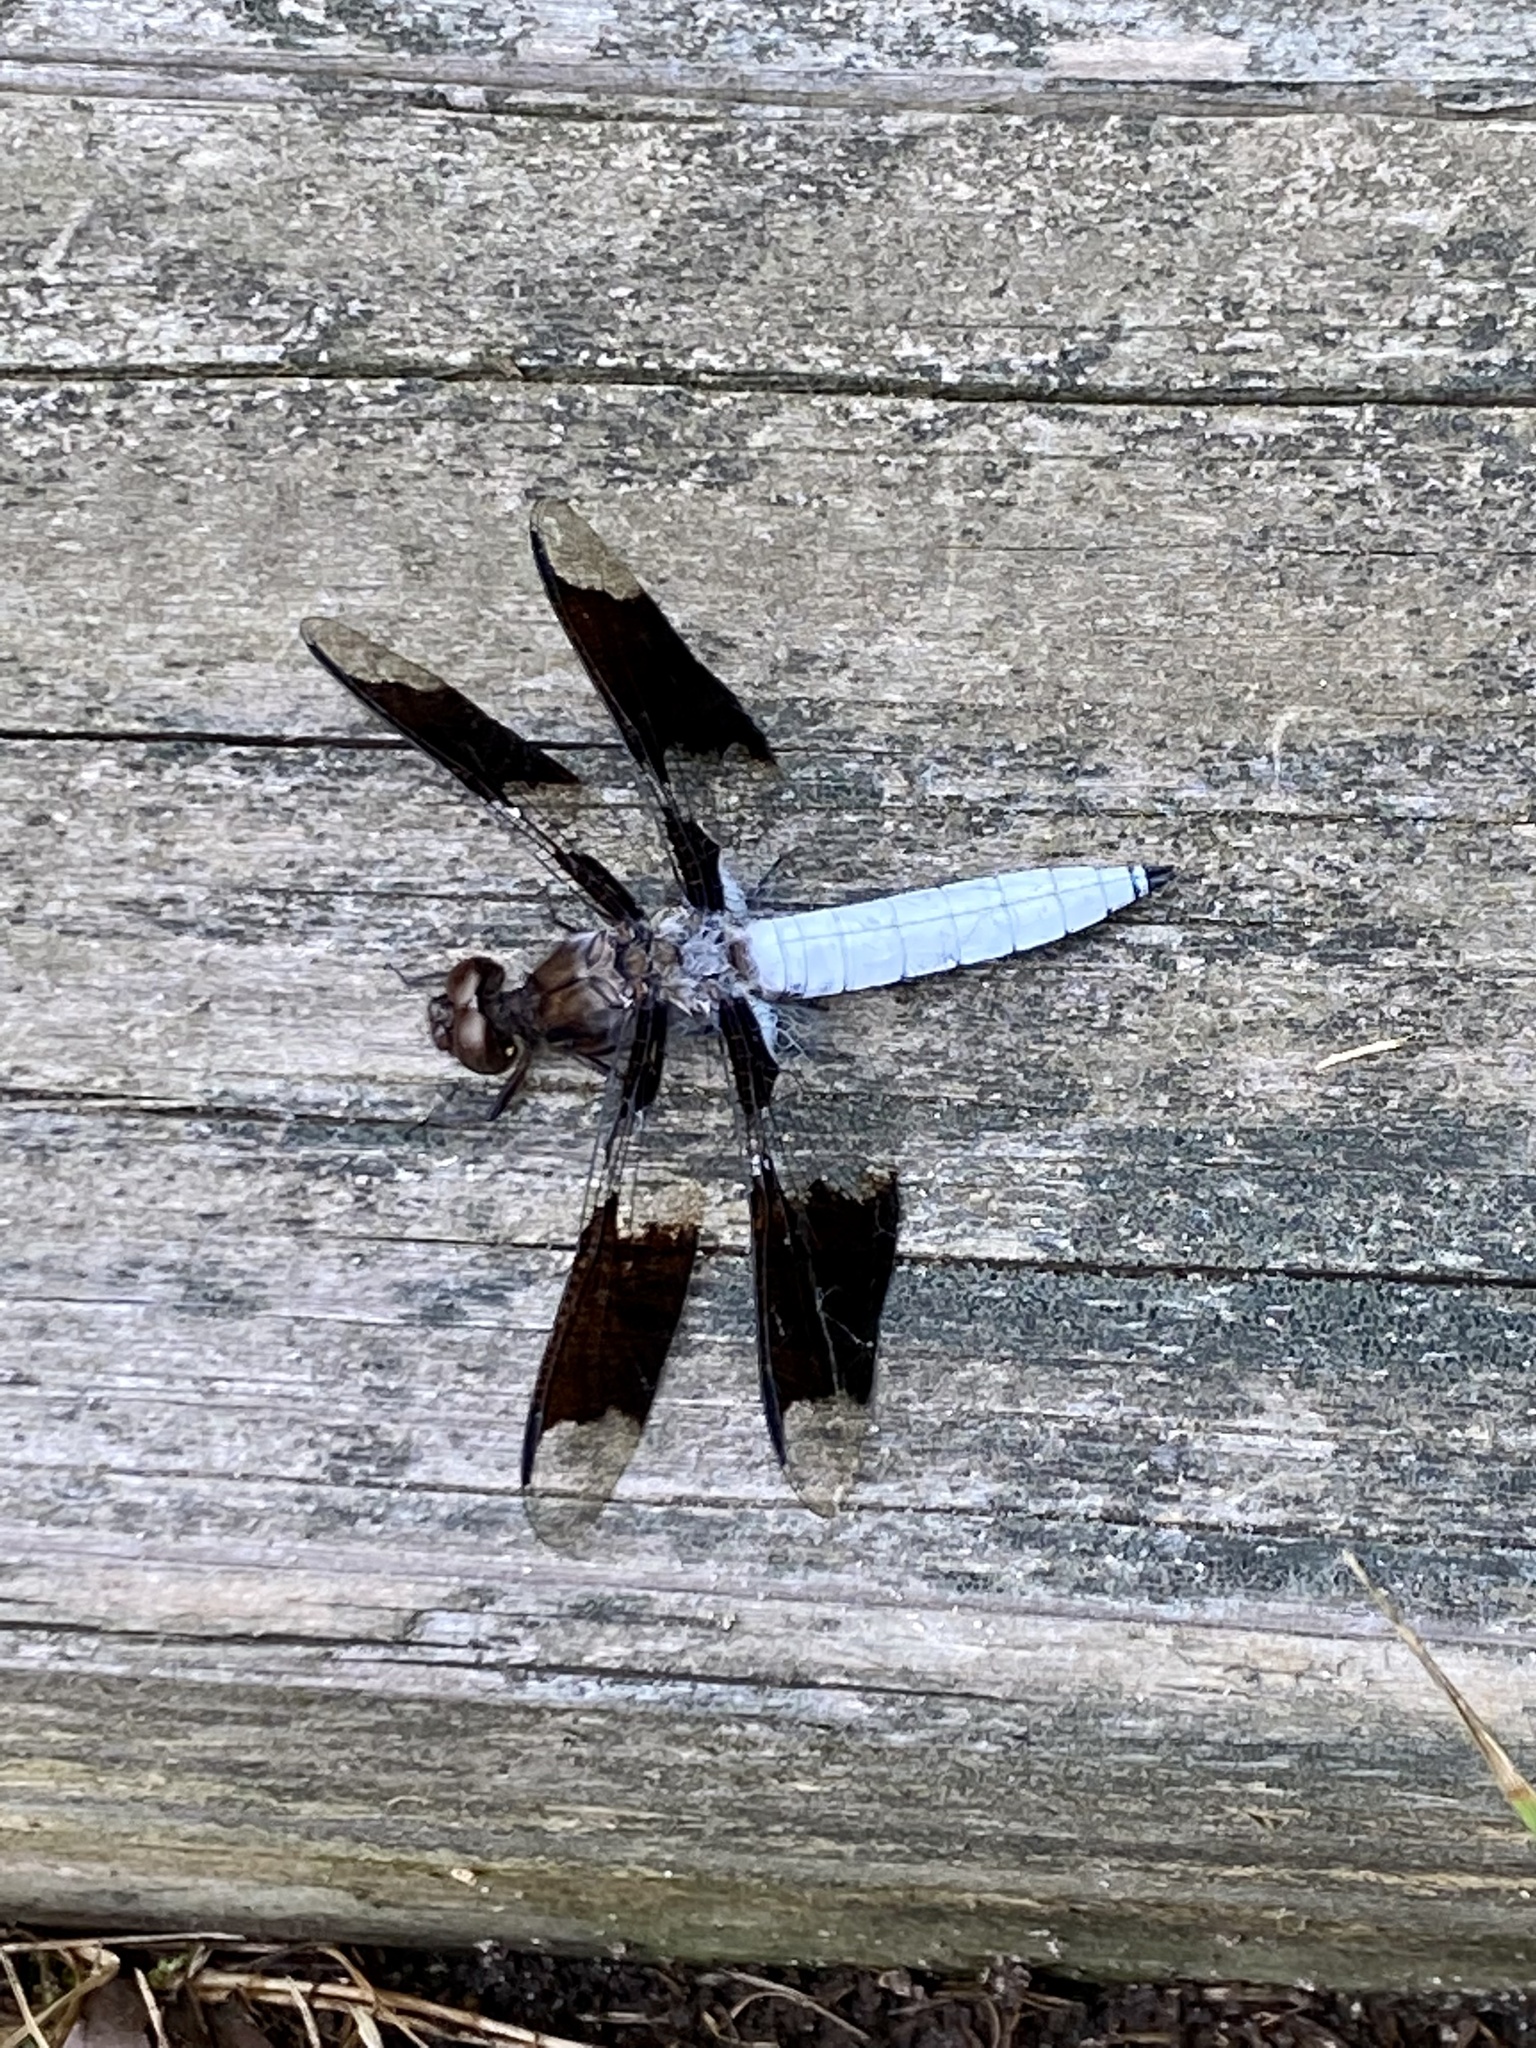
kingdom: Animalia
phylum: Arthropoda
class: Insecta
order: Odonata
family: Libellulidae
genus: Plathemis
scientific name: Plathemis lydia
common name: Common whitetail
